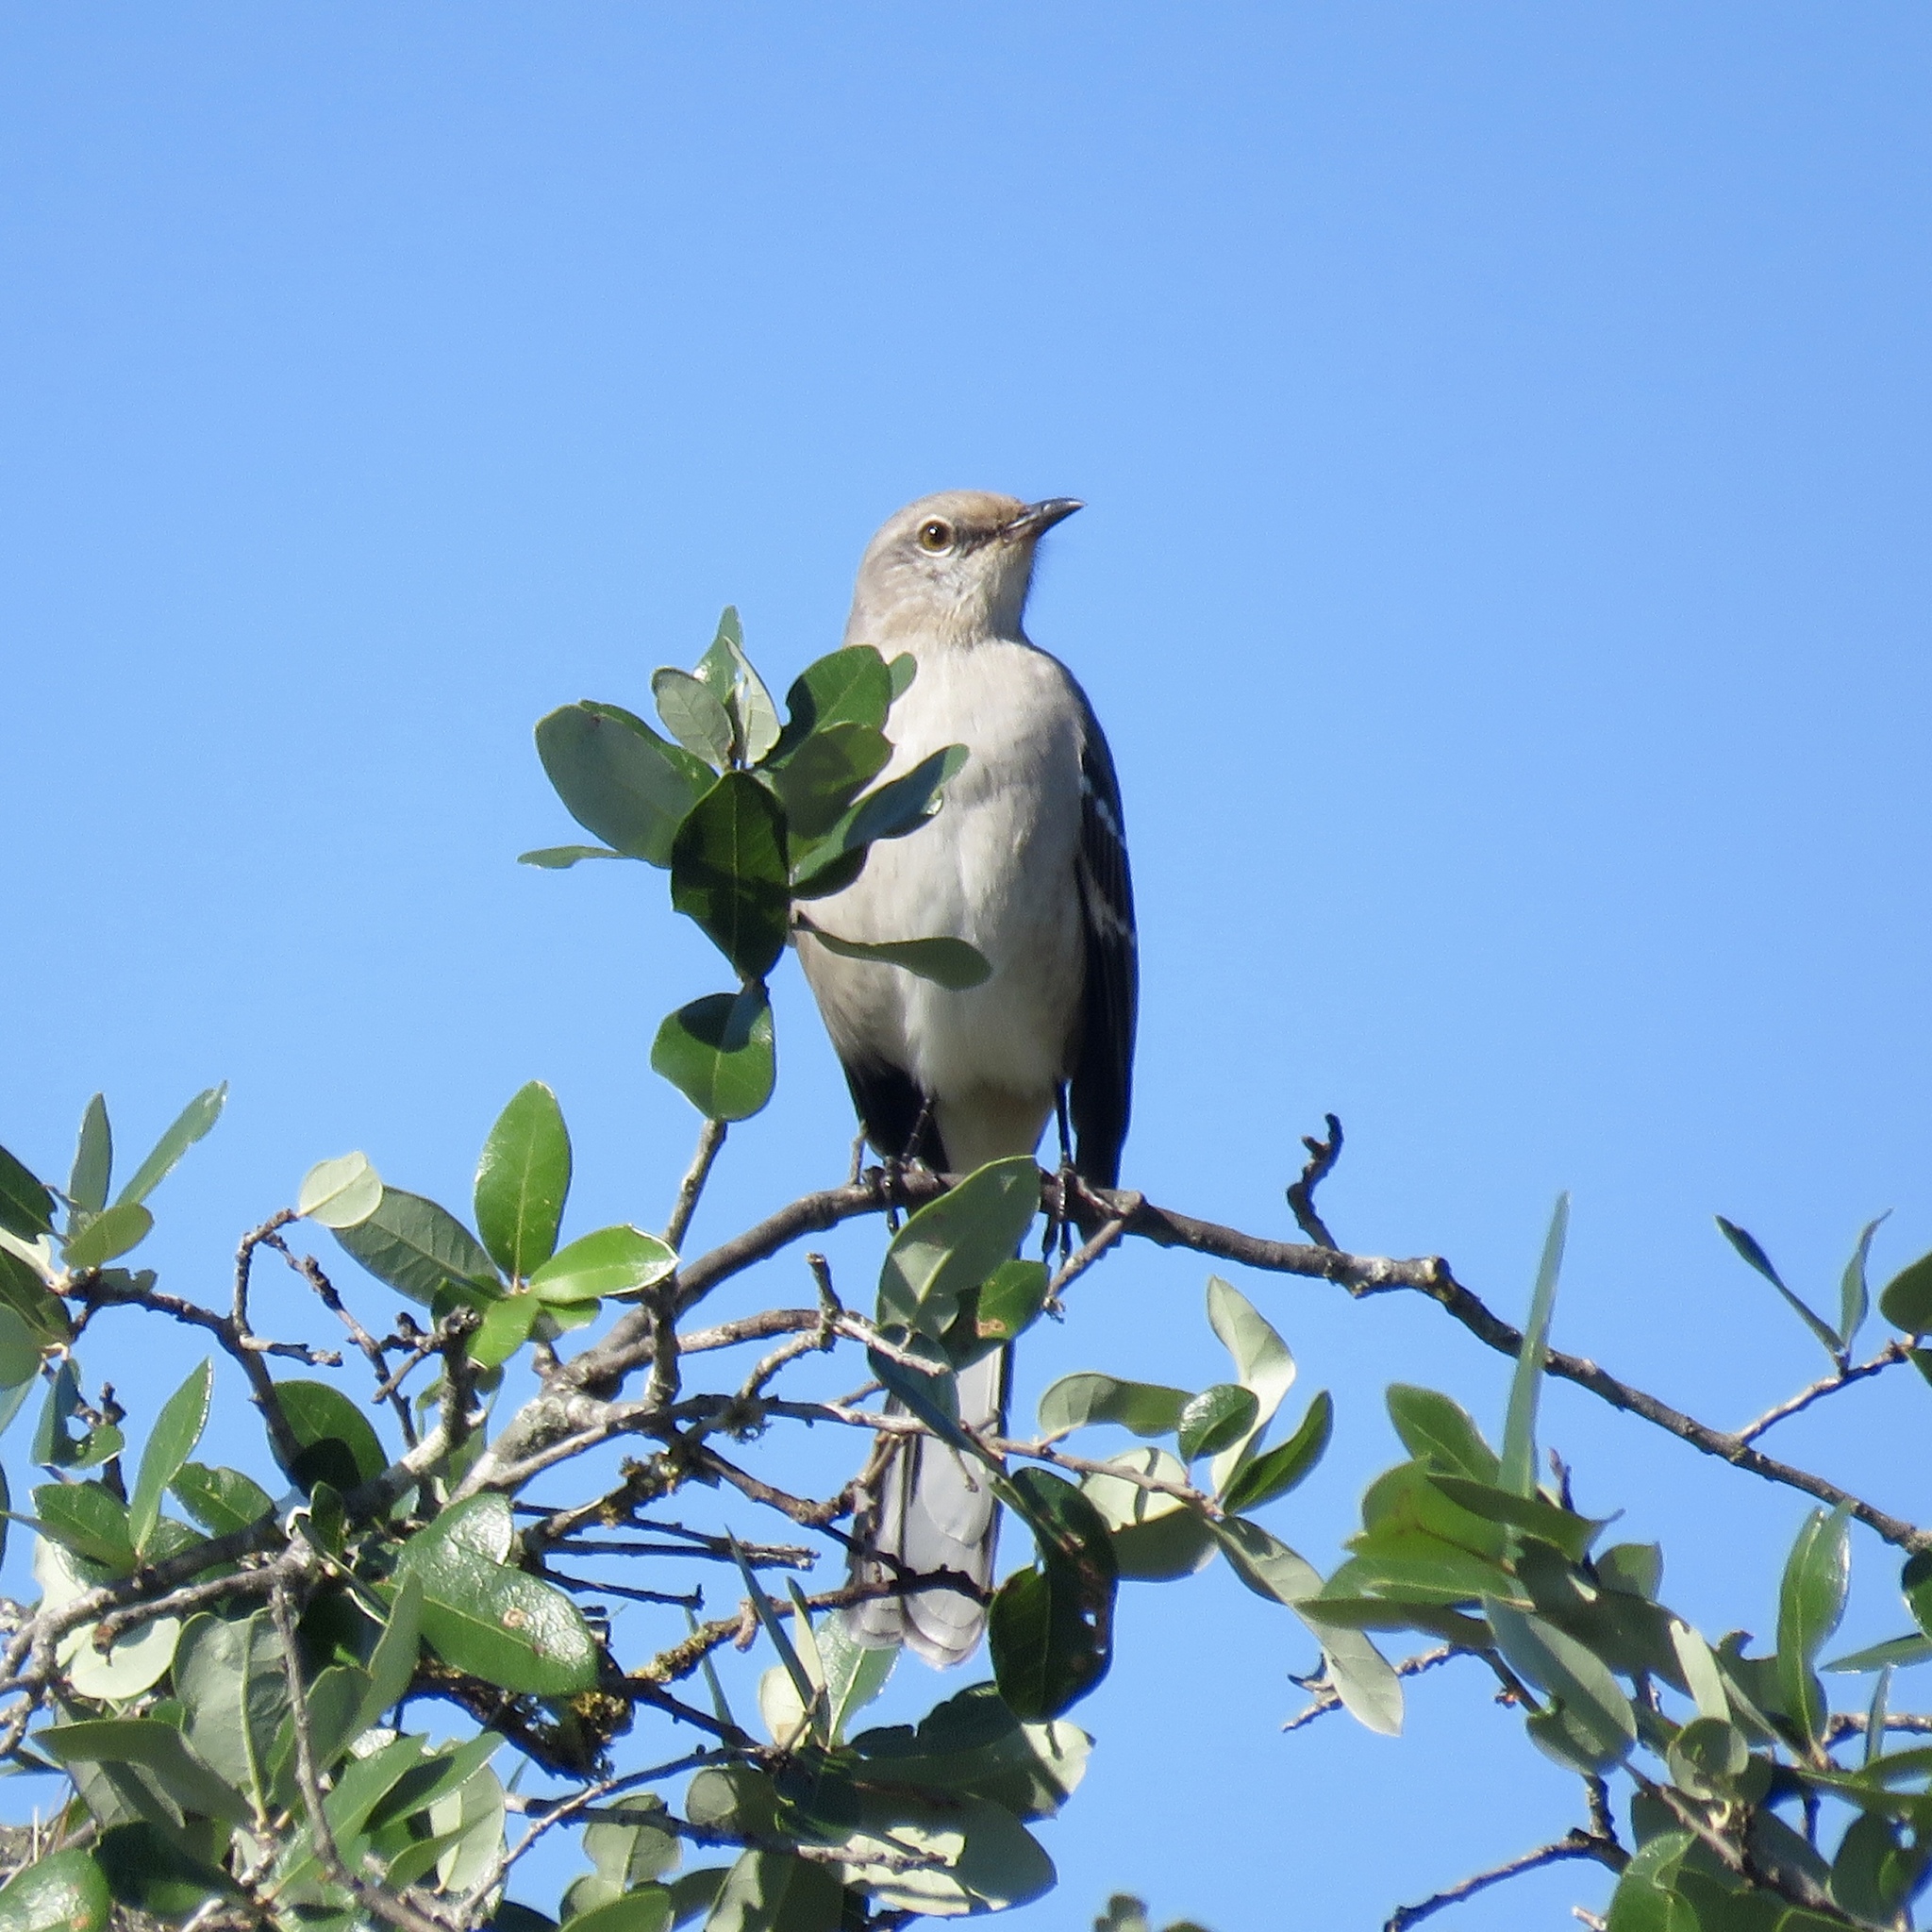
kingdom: Animalia
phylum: Chordata
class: Aves
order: Passeriformes
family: Mimidae
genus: Mimus
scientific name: Mimus polyglottos
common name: Northern mockingbird
